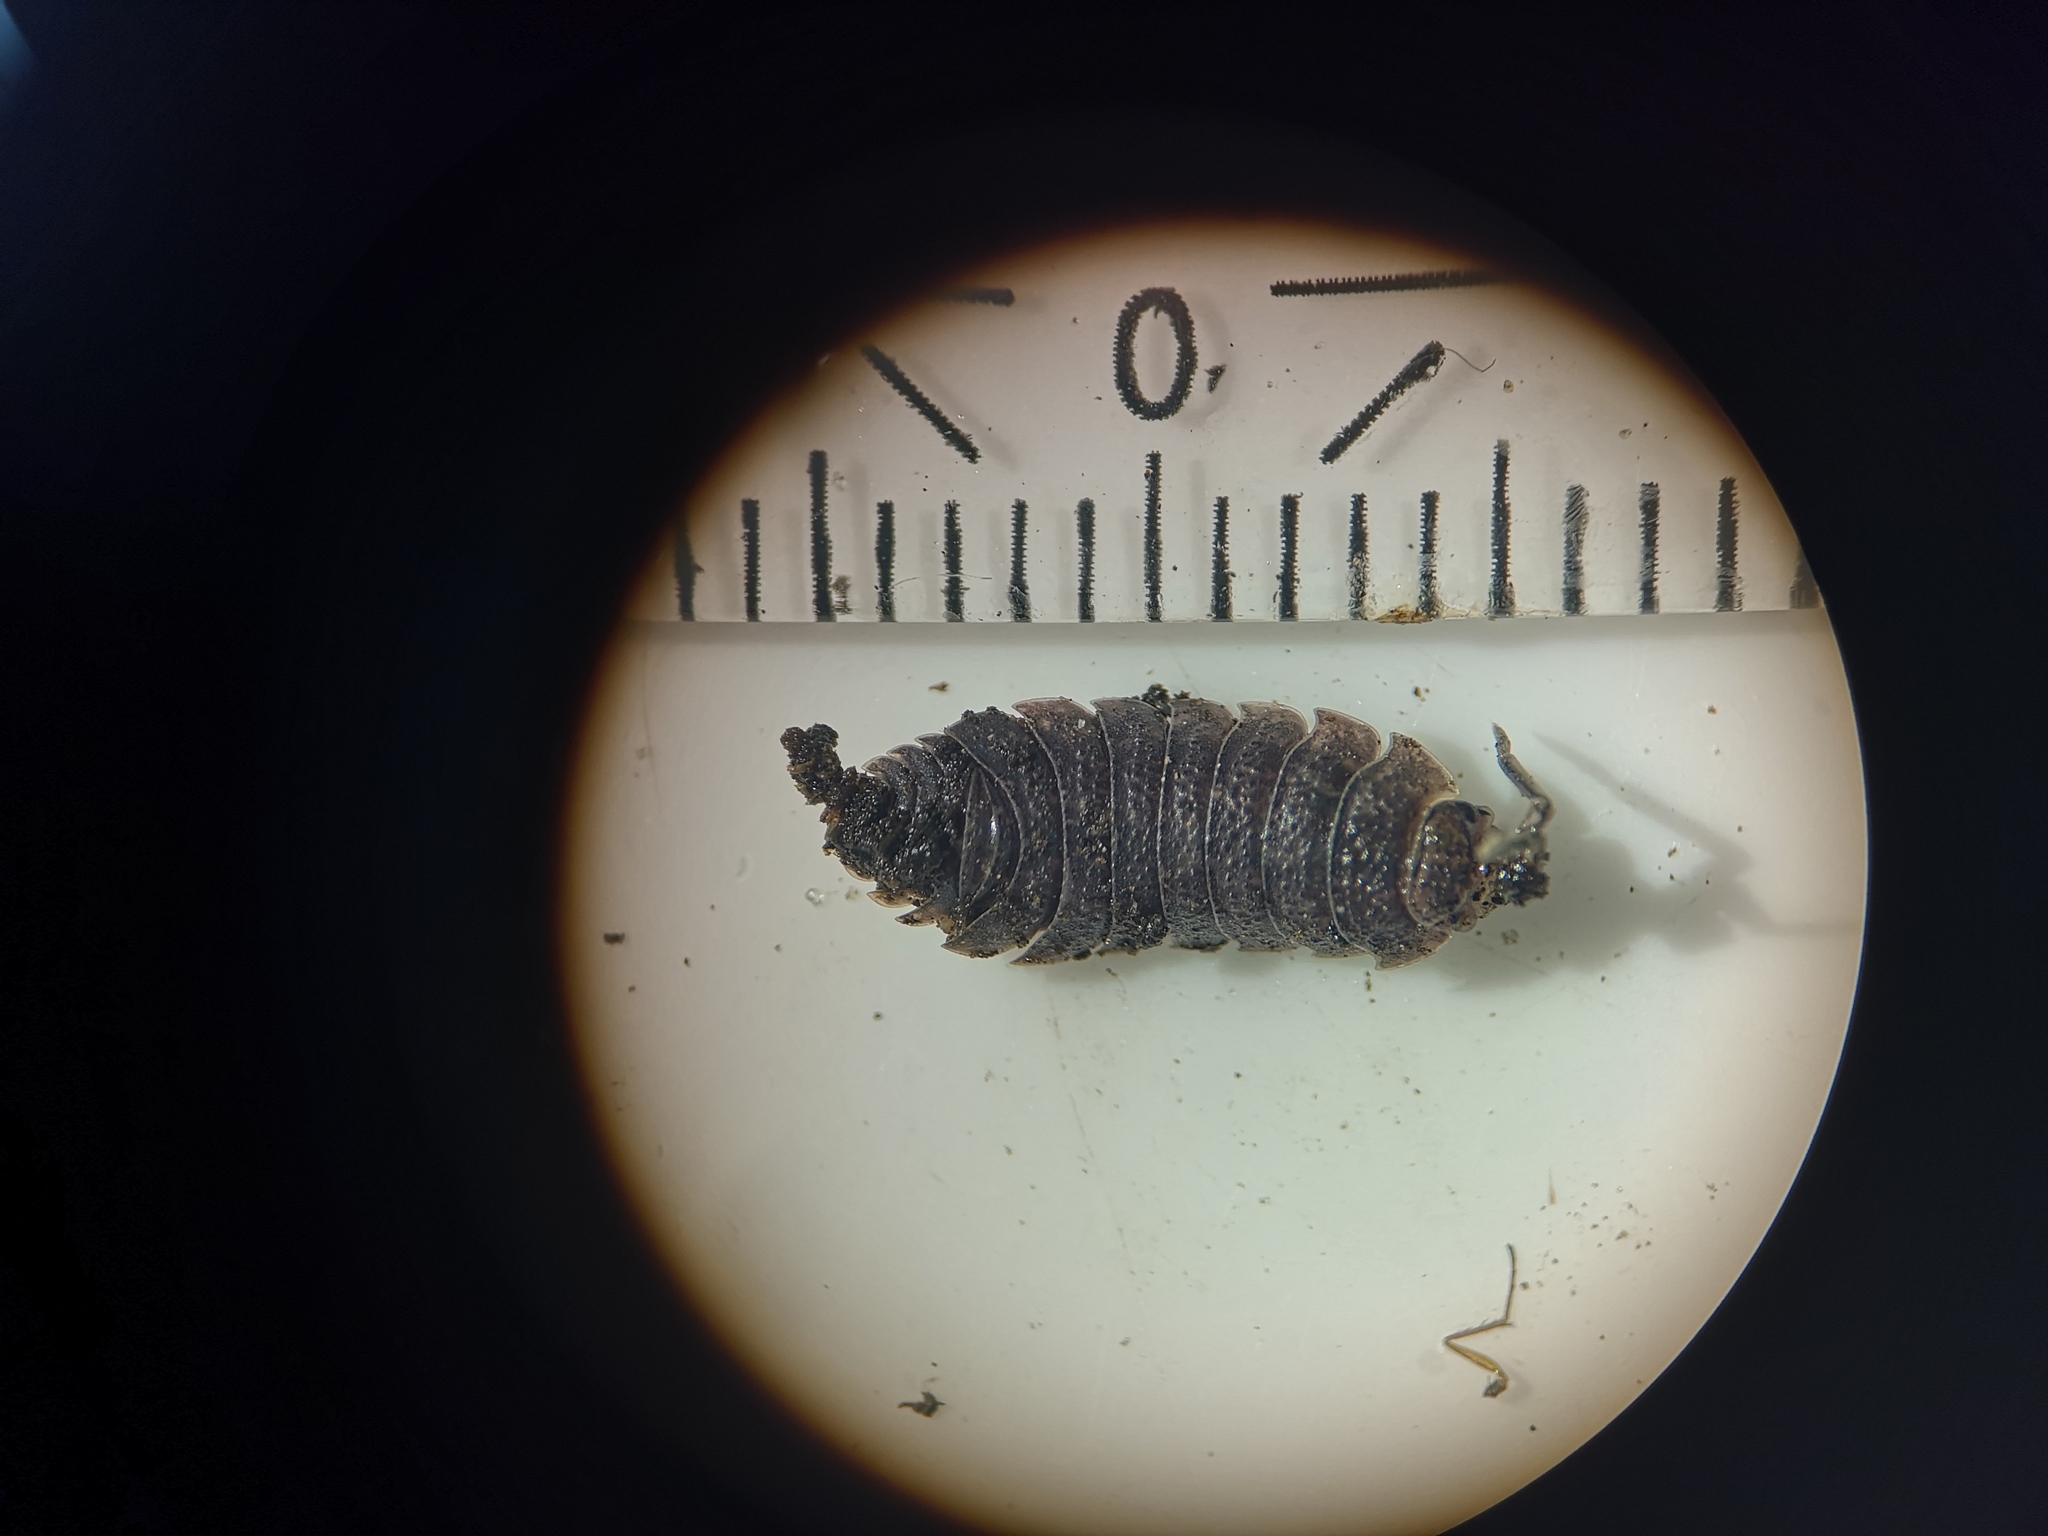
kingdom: Animalia
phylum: Arthropoda
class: Malacostraca
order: Isopoda
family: Porcellionidae
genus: Porcellio
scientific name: Porcellio scaber
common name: Common rough woodlouse
